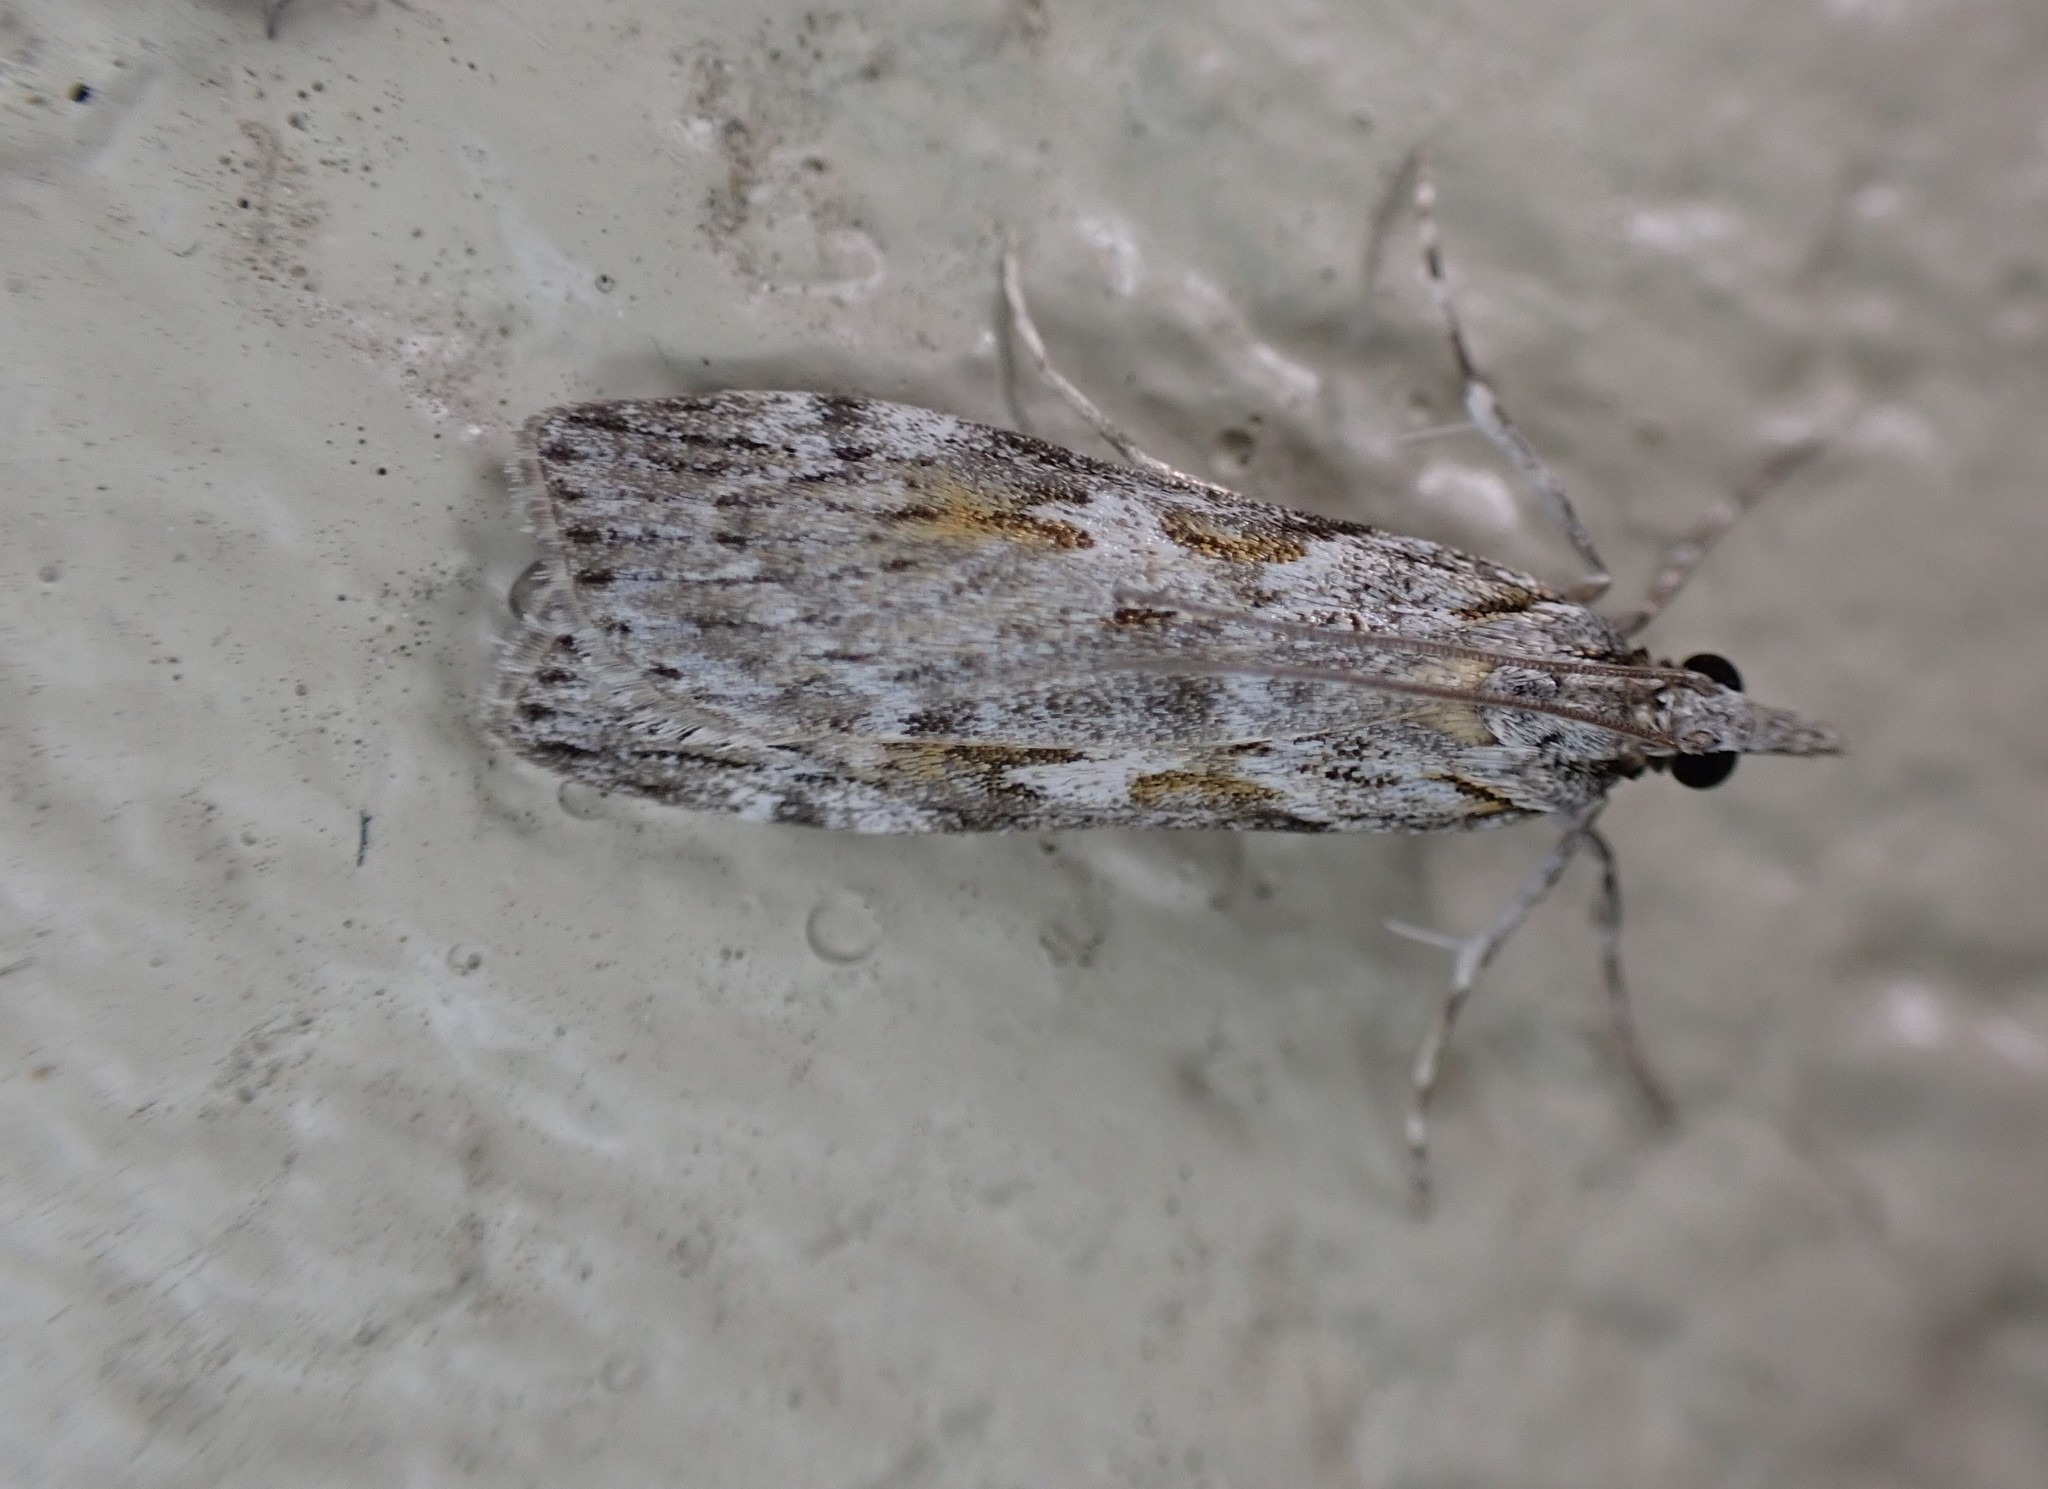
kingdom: Animalia
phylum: Arthropoda
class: Insecta
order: Lepidoptera
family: Crambidae
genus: Scoparia
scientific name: Scoparia halopis
